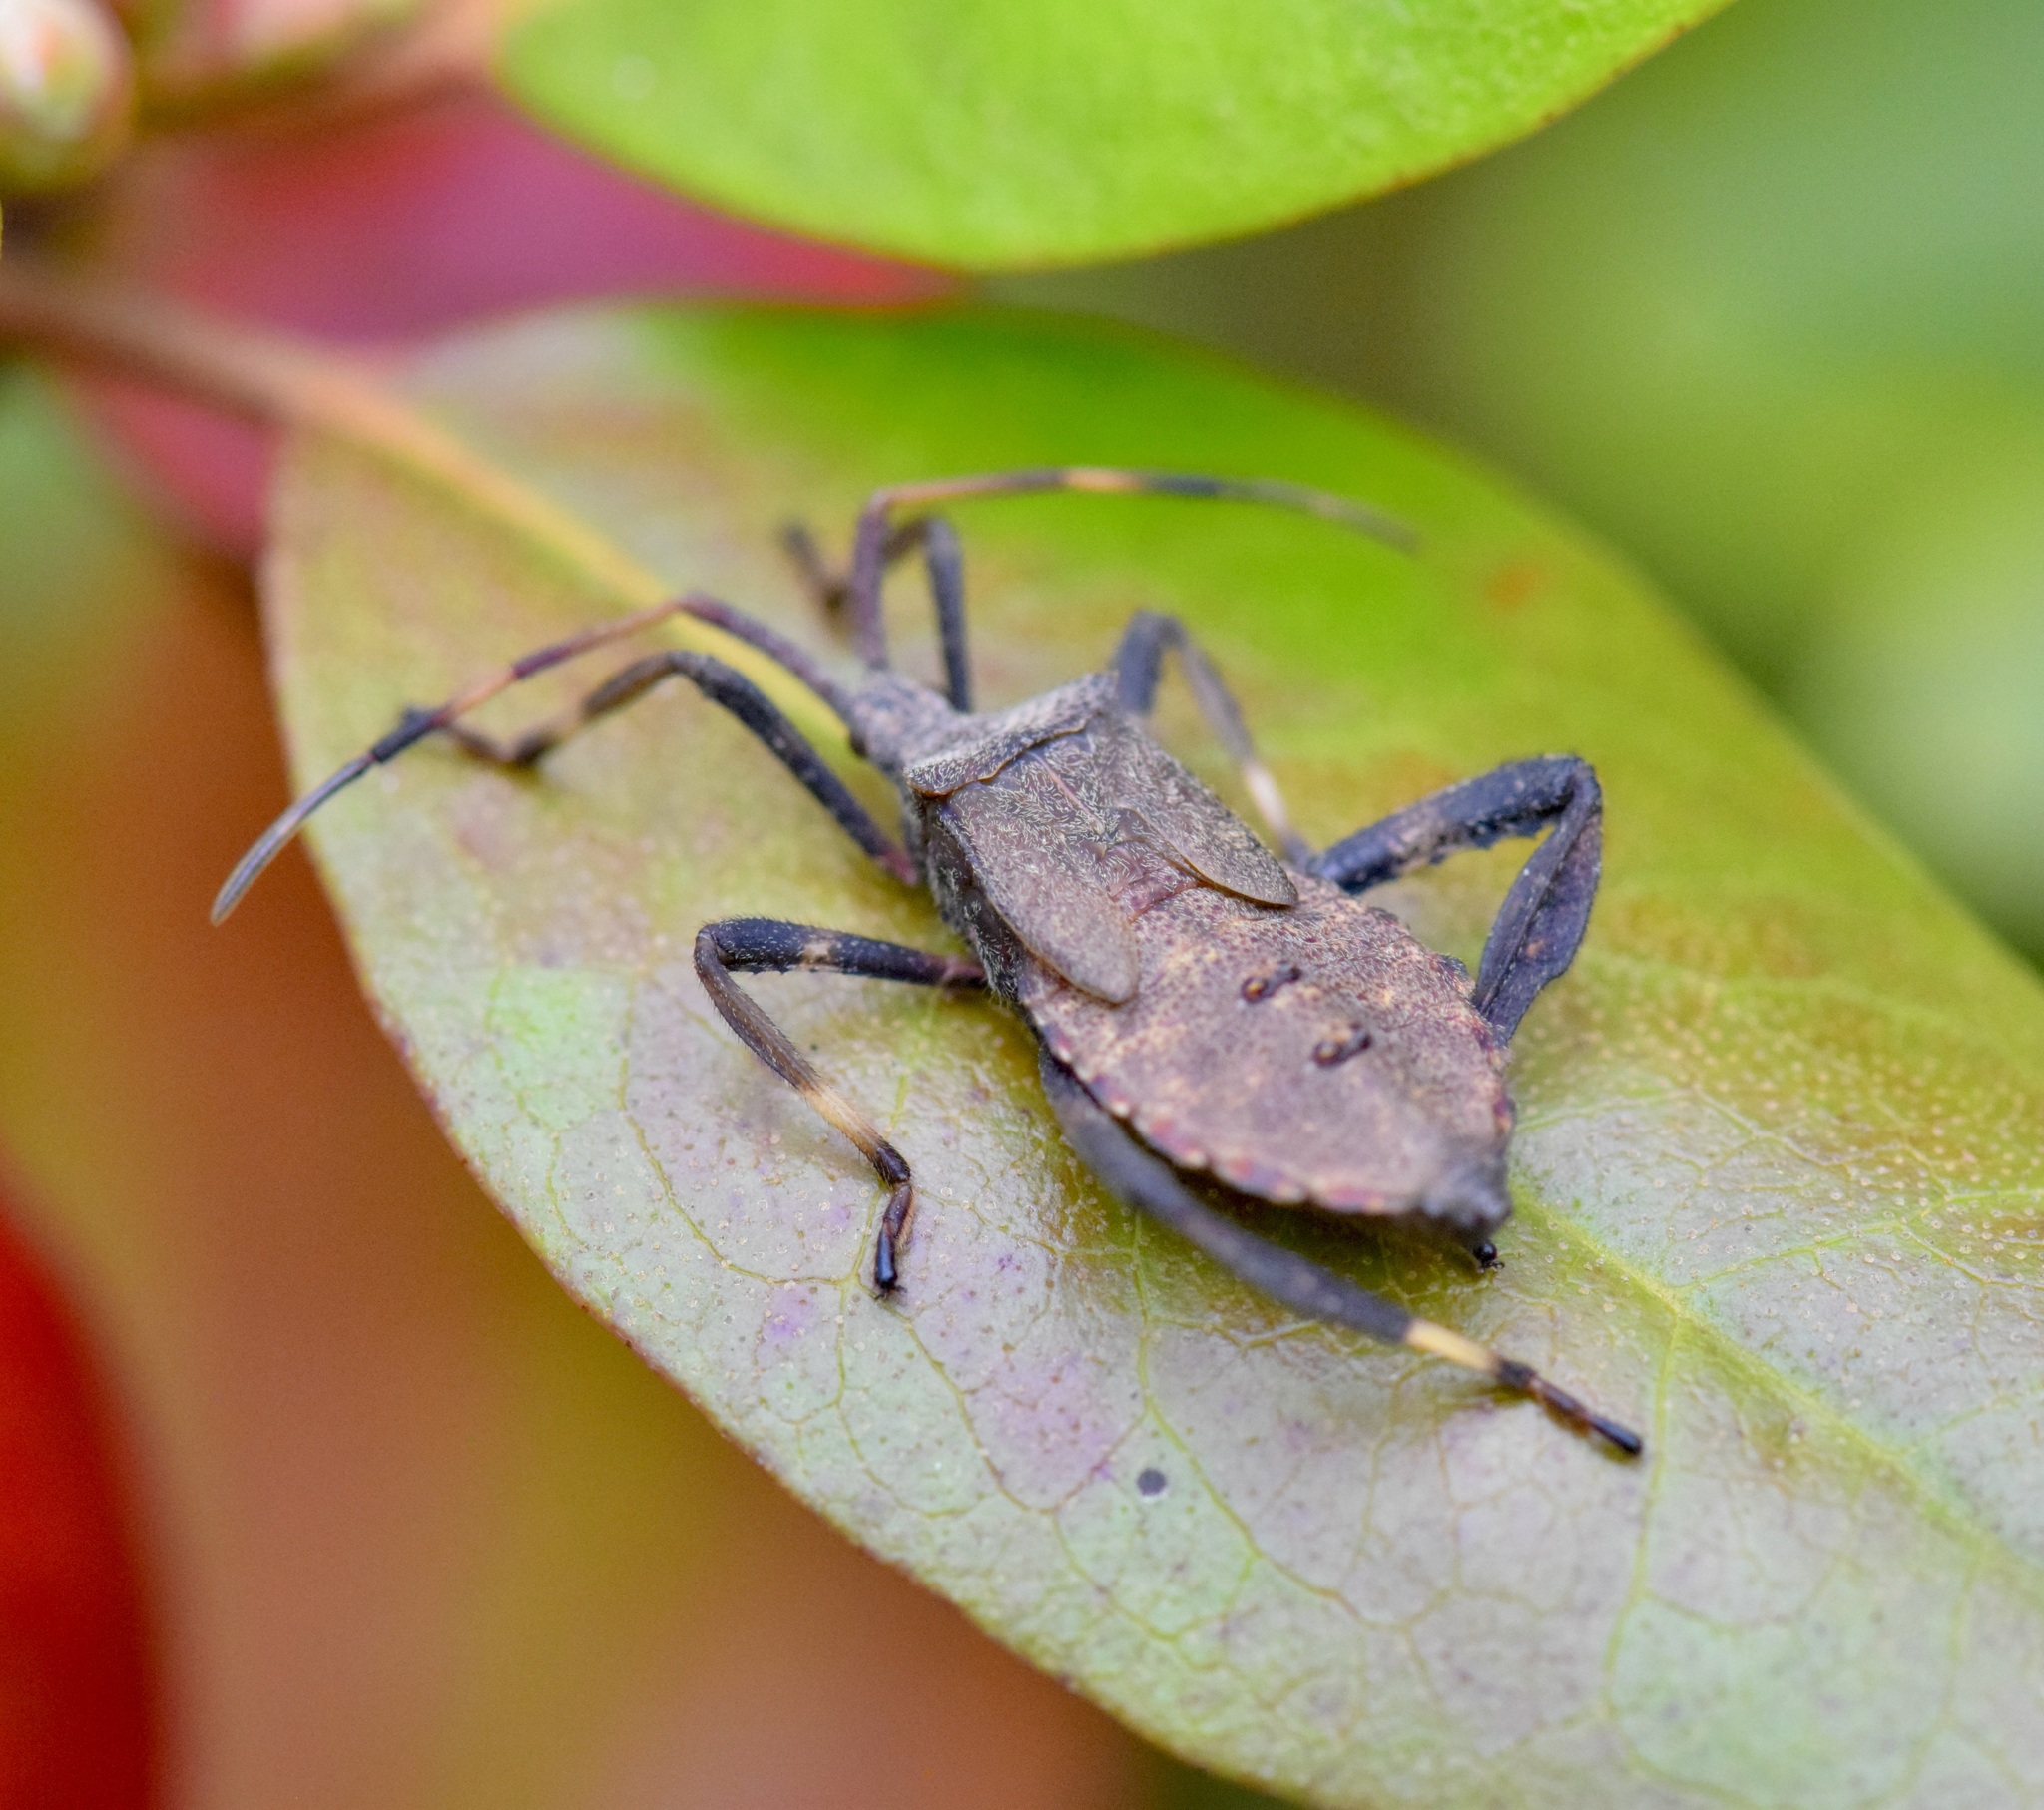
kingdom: Animalia
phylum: Arthropoda
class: Insecta
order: Hemiptera
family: Coreidae
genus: Acanthocephala
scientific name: Acanthocephala terminalis
